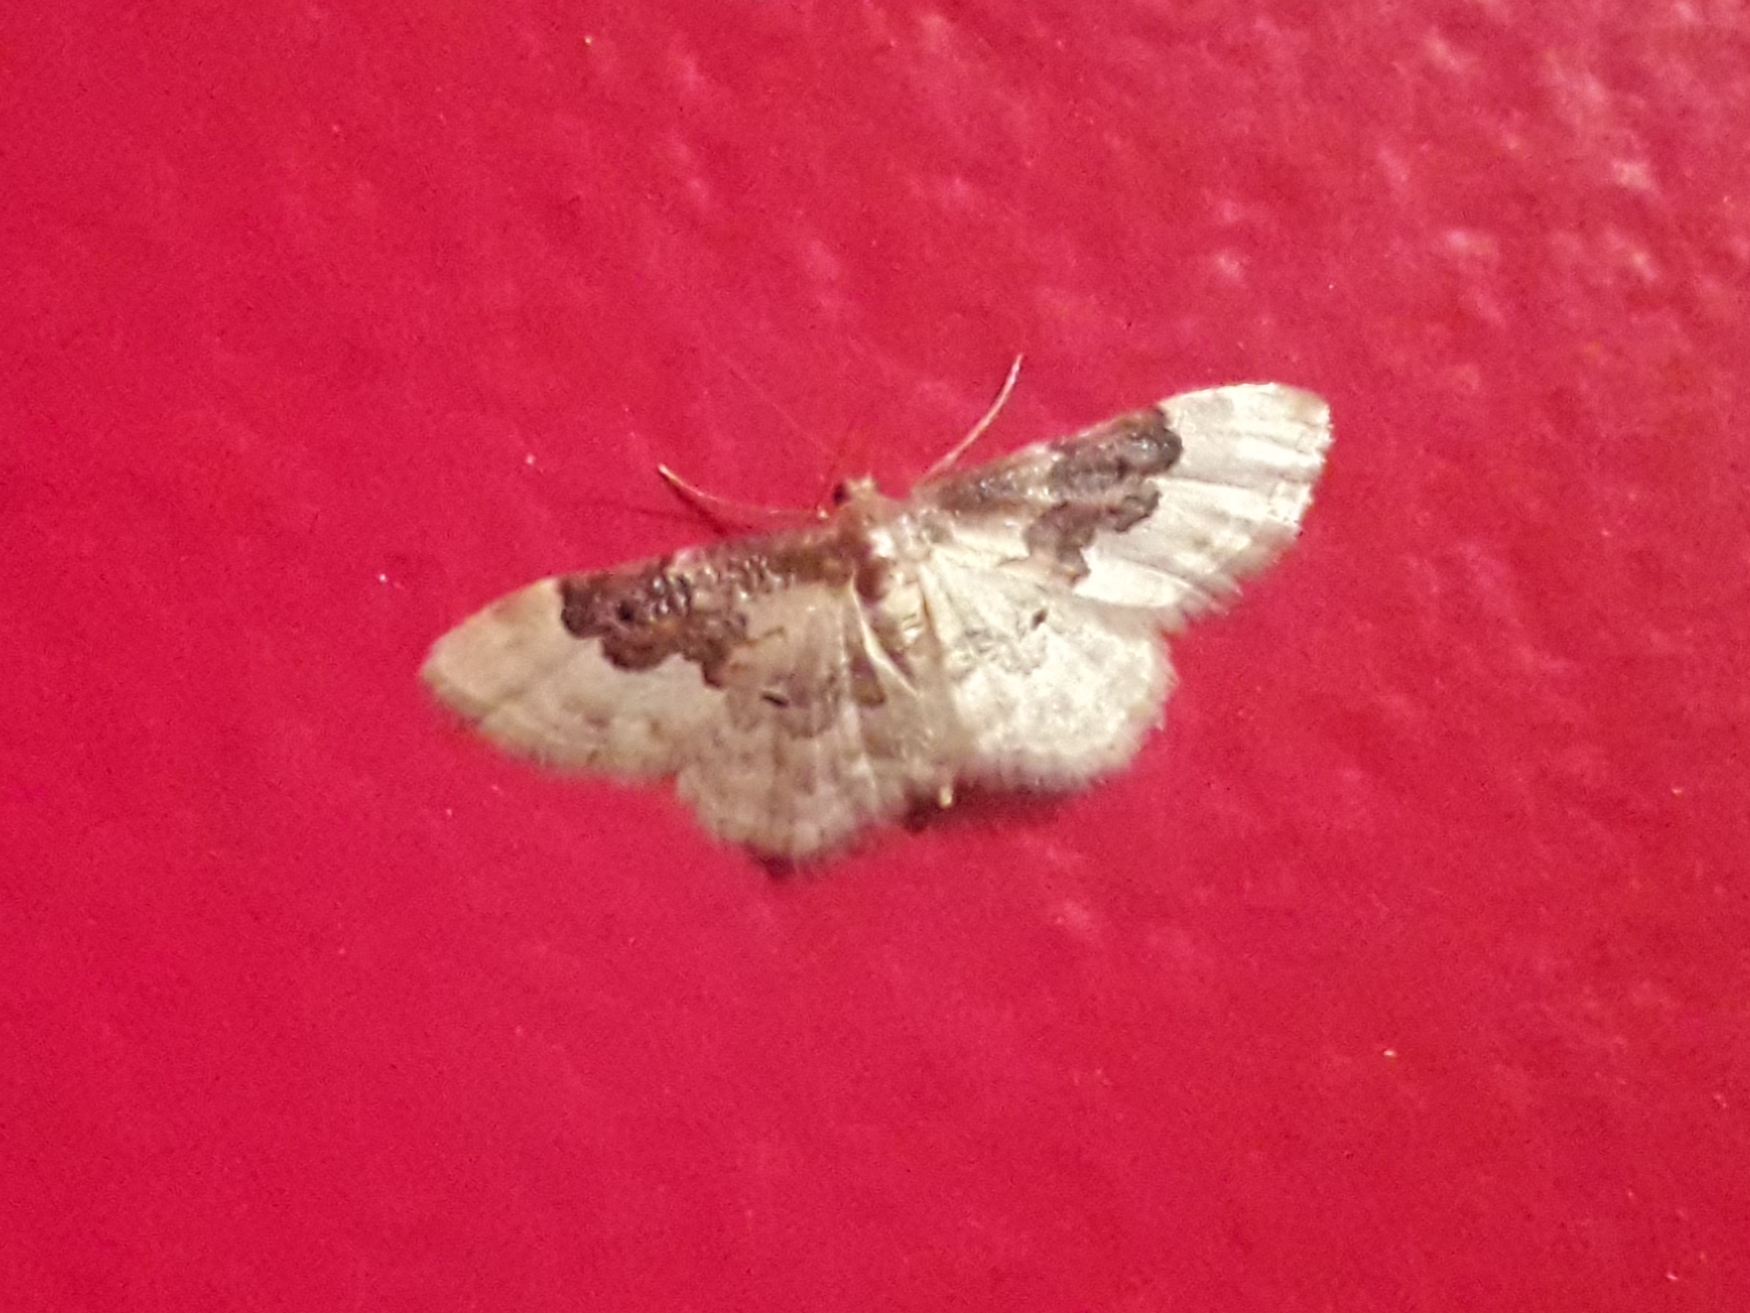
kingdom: Animalia
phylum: Arthropoda
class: Insecta
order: Lepidoptera
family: Geometridae
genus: Idaea
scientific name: Idaea rusticata
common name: Least carpet
